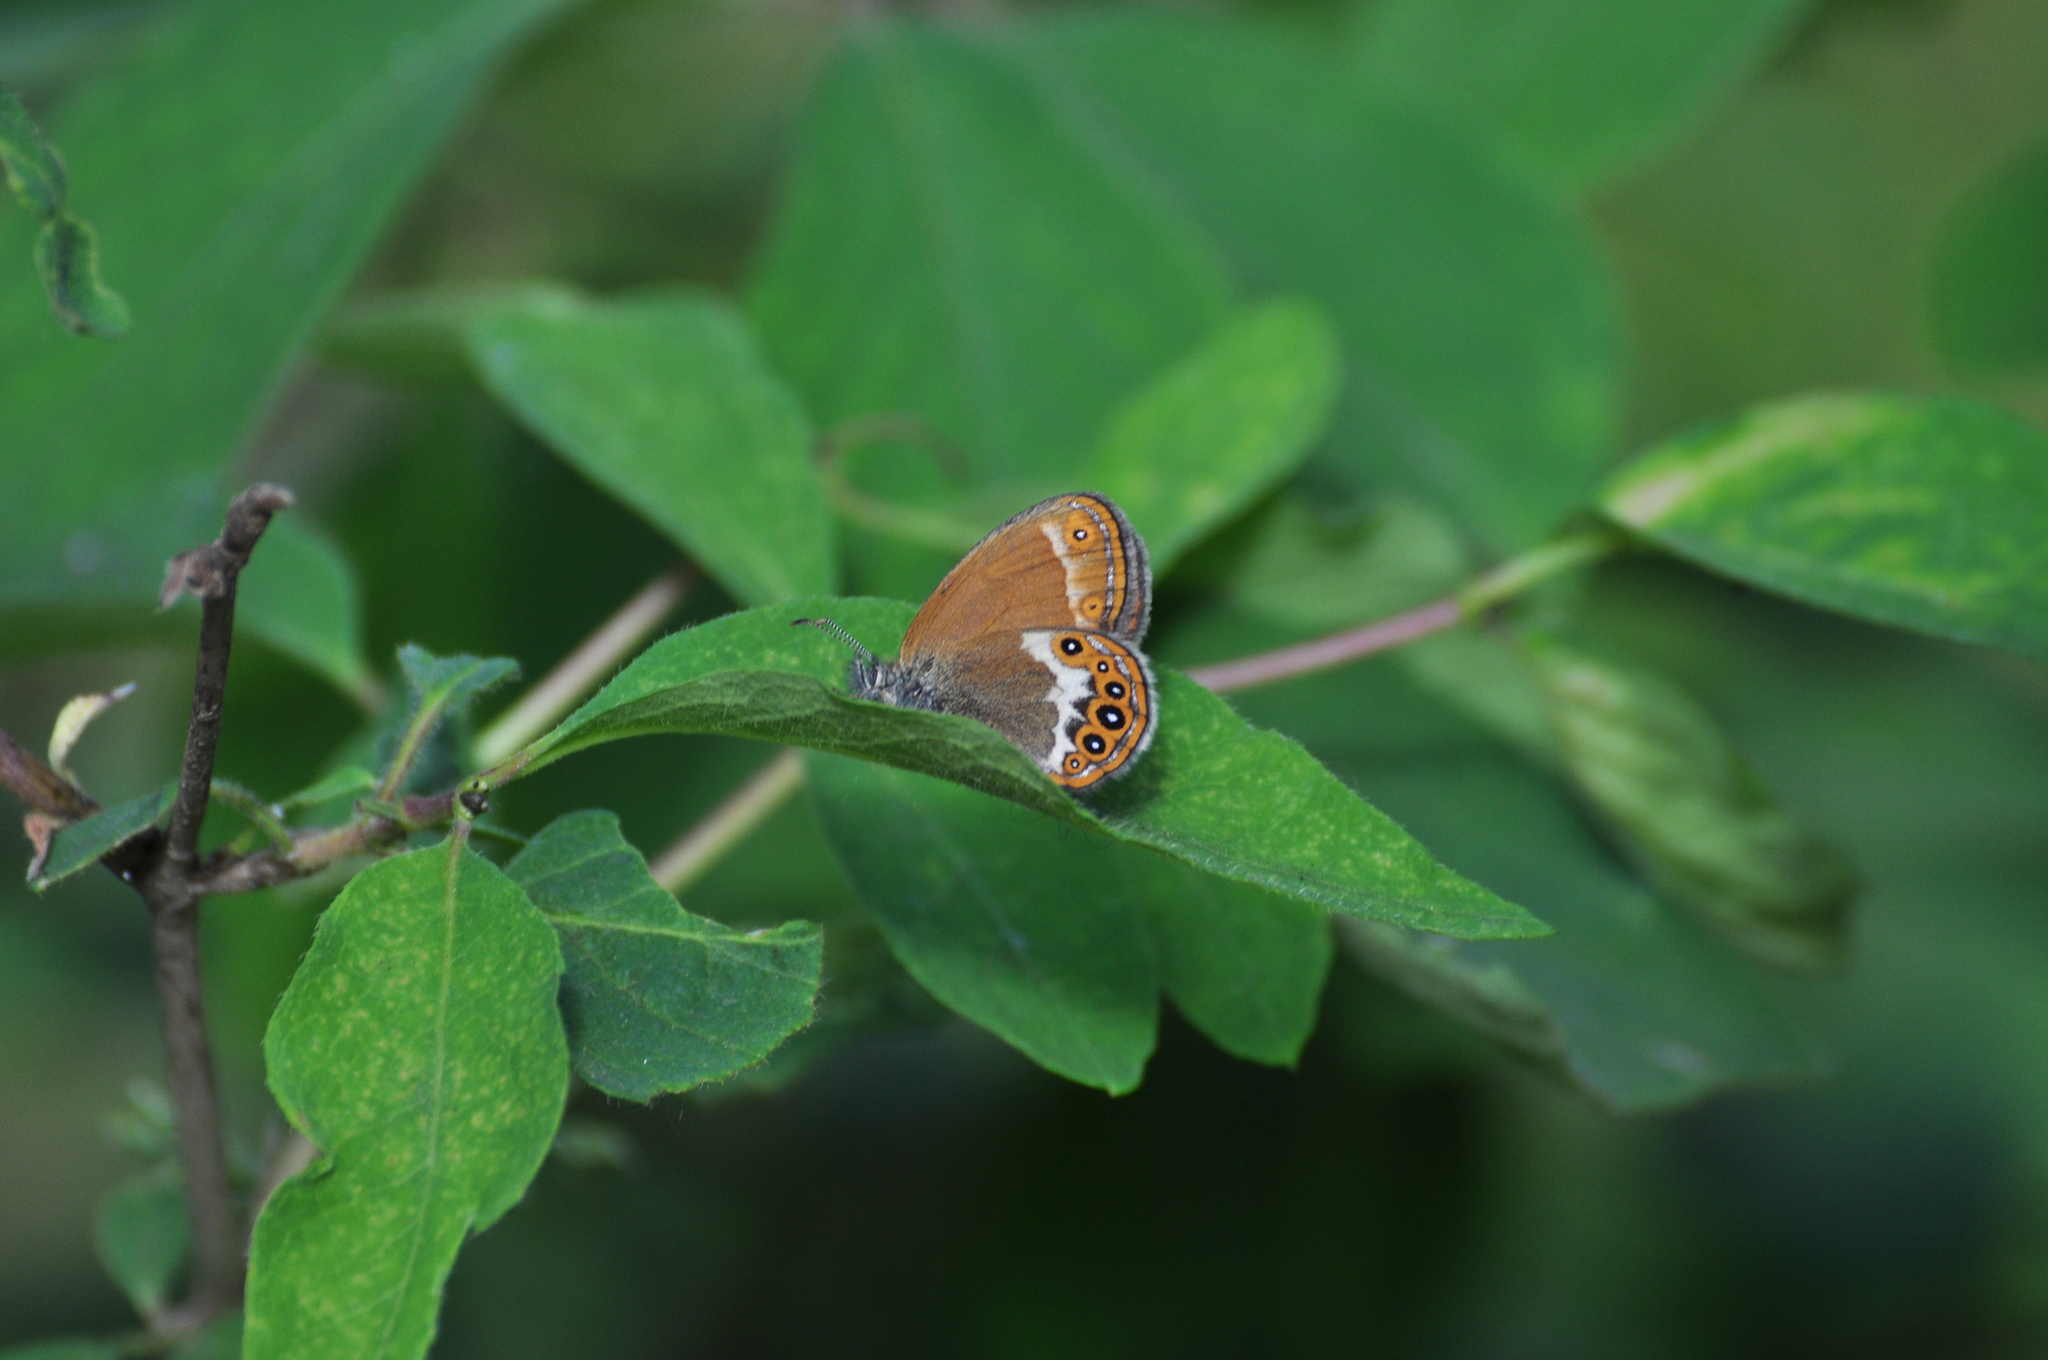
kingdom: Animalia
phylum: Arthropoda
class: Insecta
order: Lepidoptera
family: Nymphalidae
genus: Coenonympha
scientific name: Coenonympha hero
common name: Scarce heath
